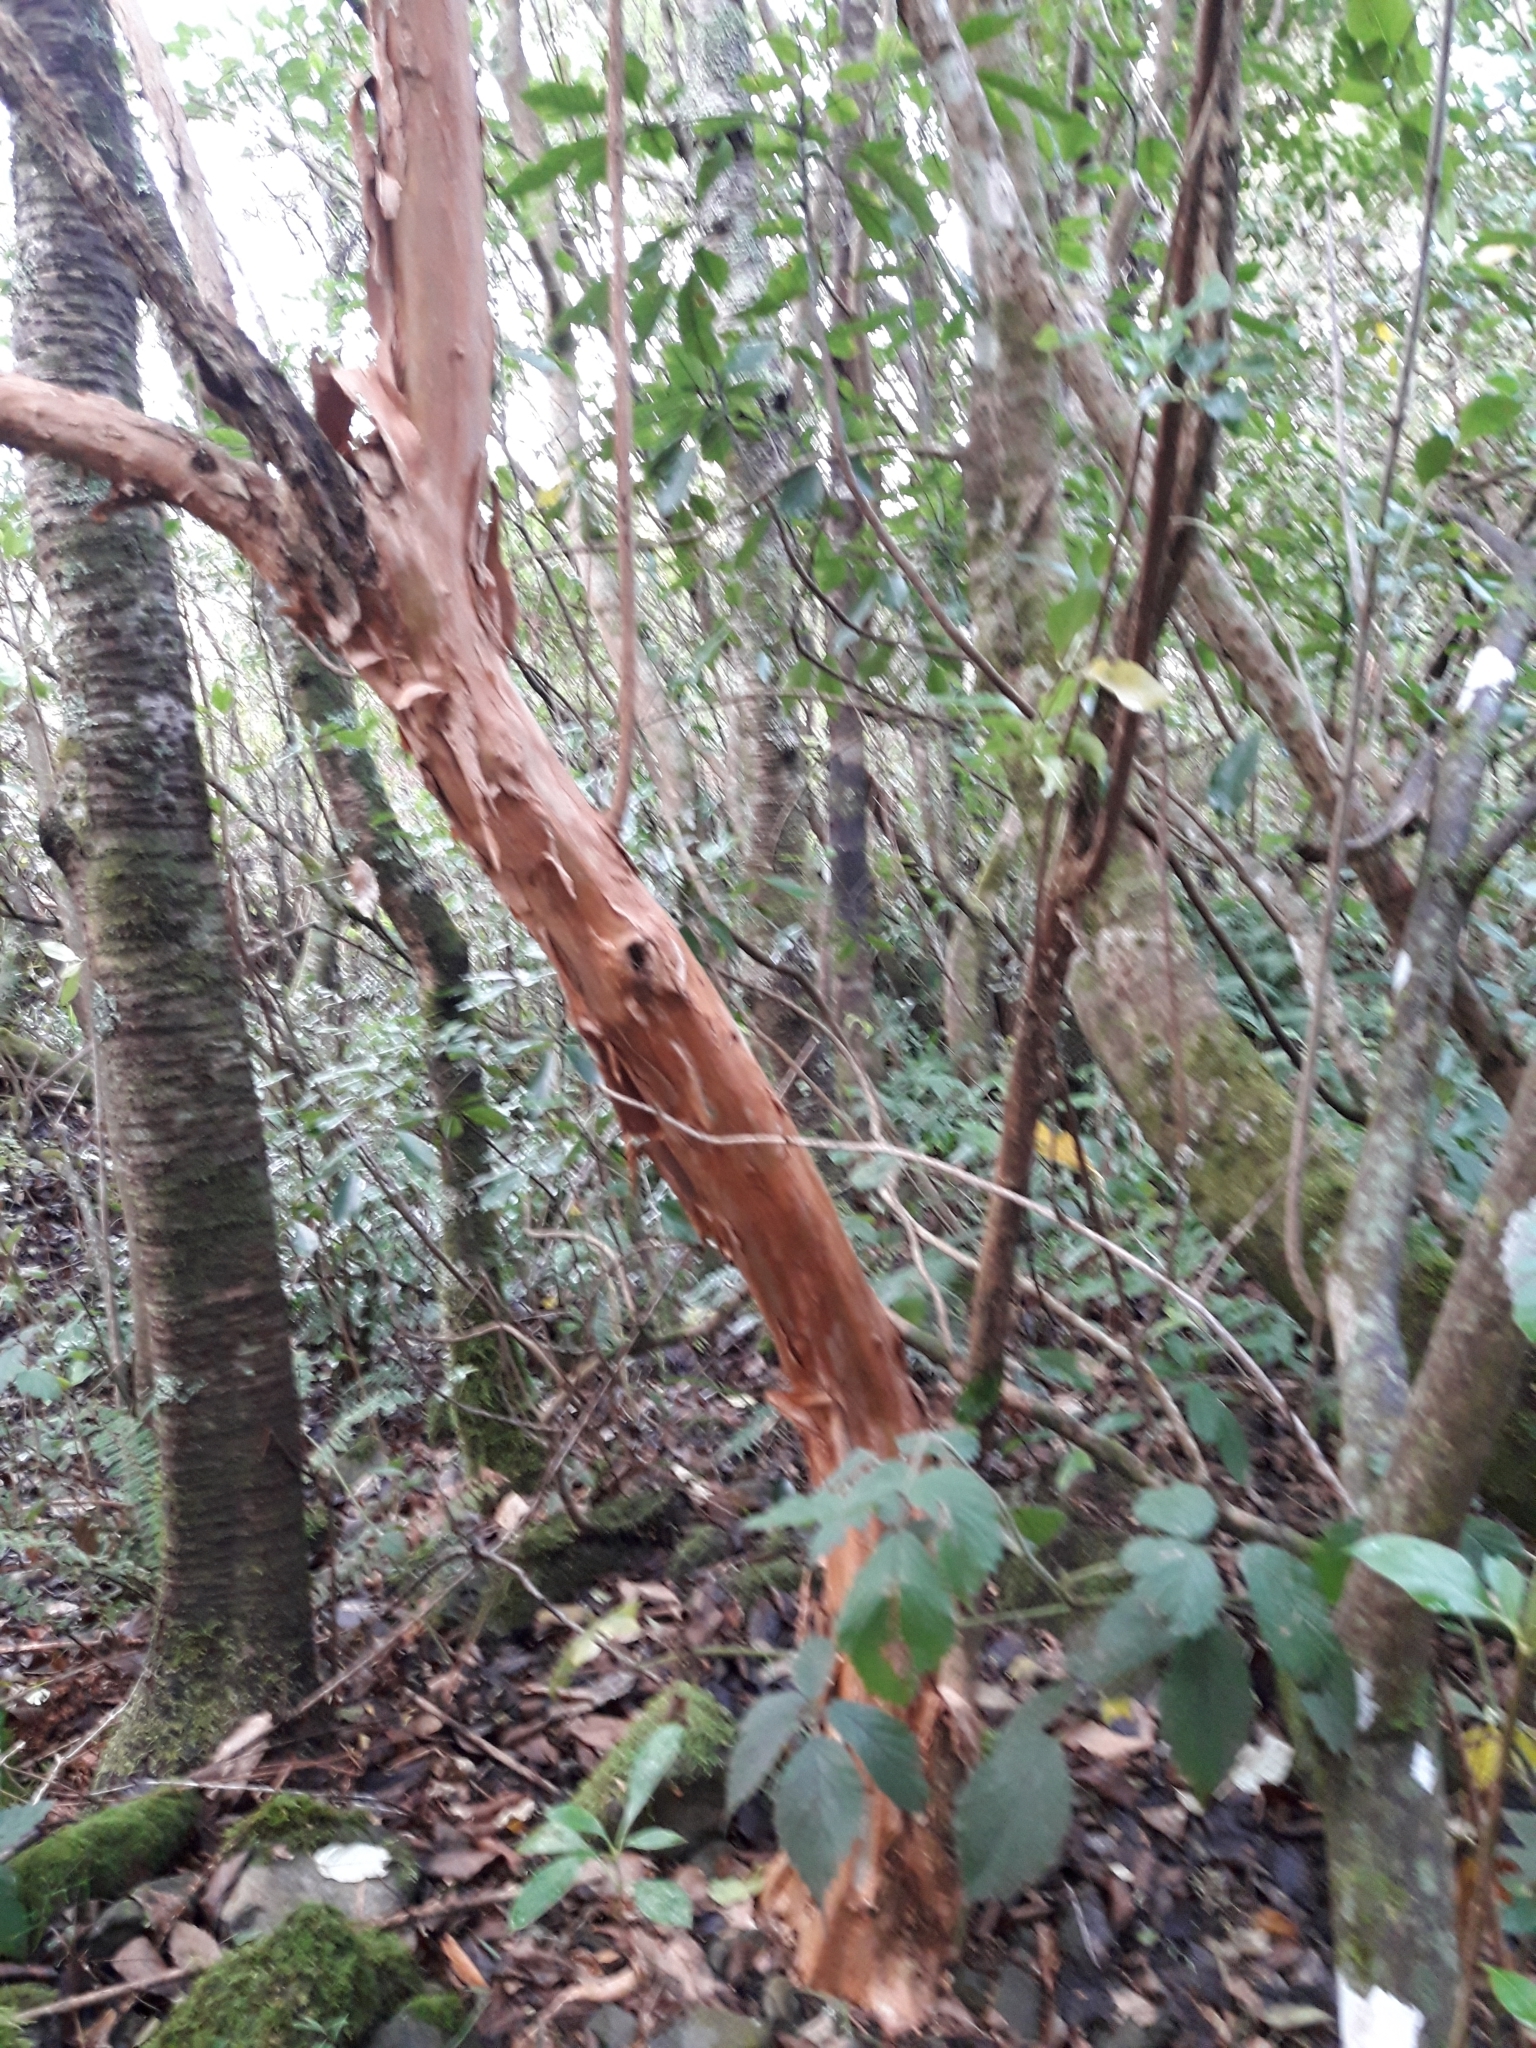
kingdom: Plantae
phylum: Tracheophyta
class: Magnoliopsida
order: Myrtales
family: Onagraceae
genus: Fuchsia
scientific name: Fuchsia excorticata
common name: Tree fuchsia
